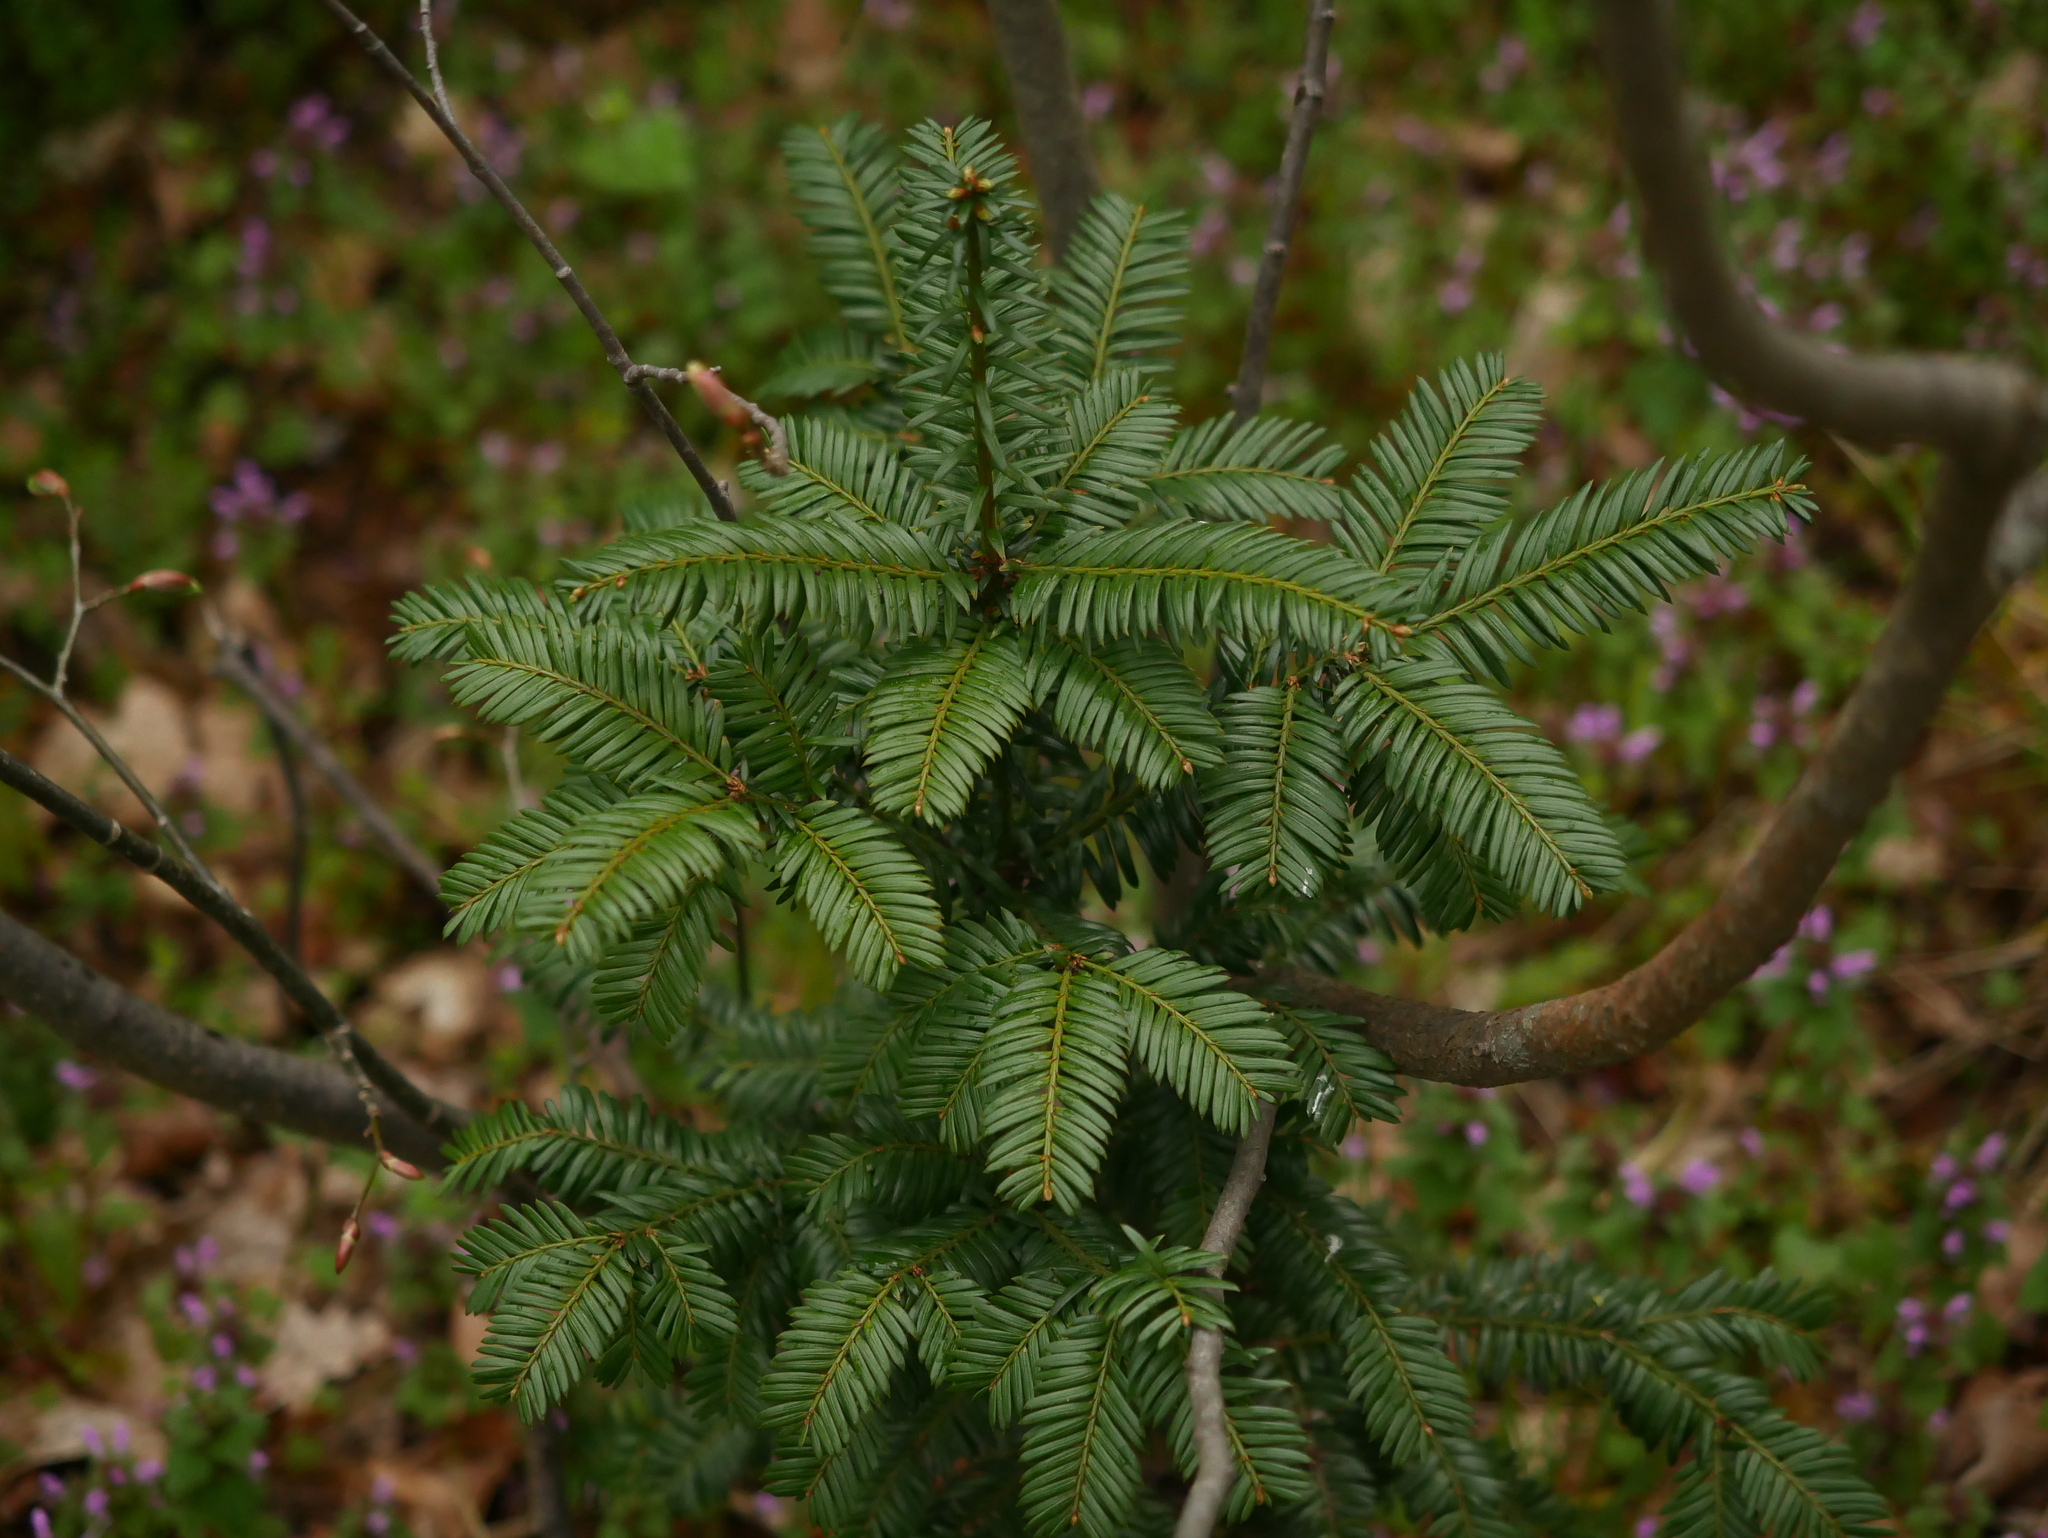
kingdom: Plantae
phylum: Tracheophyta
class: Pinopsida
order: Pinales
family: Taxaceae
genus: Taxus
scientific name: Taxus baccata
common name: Yew
